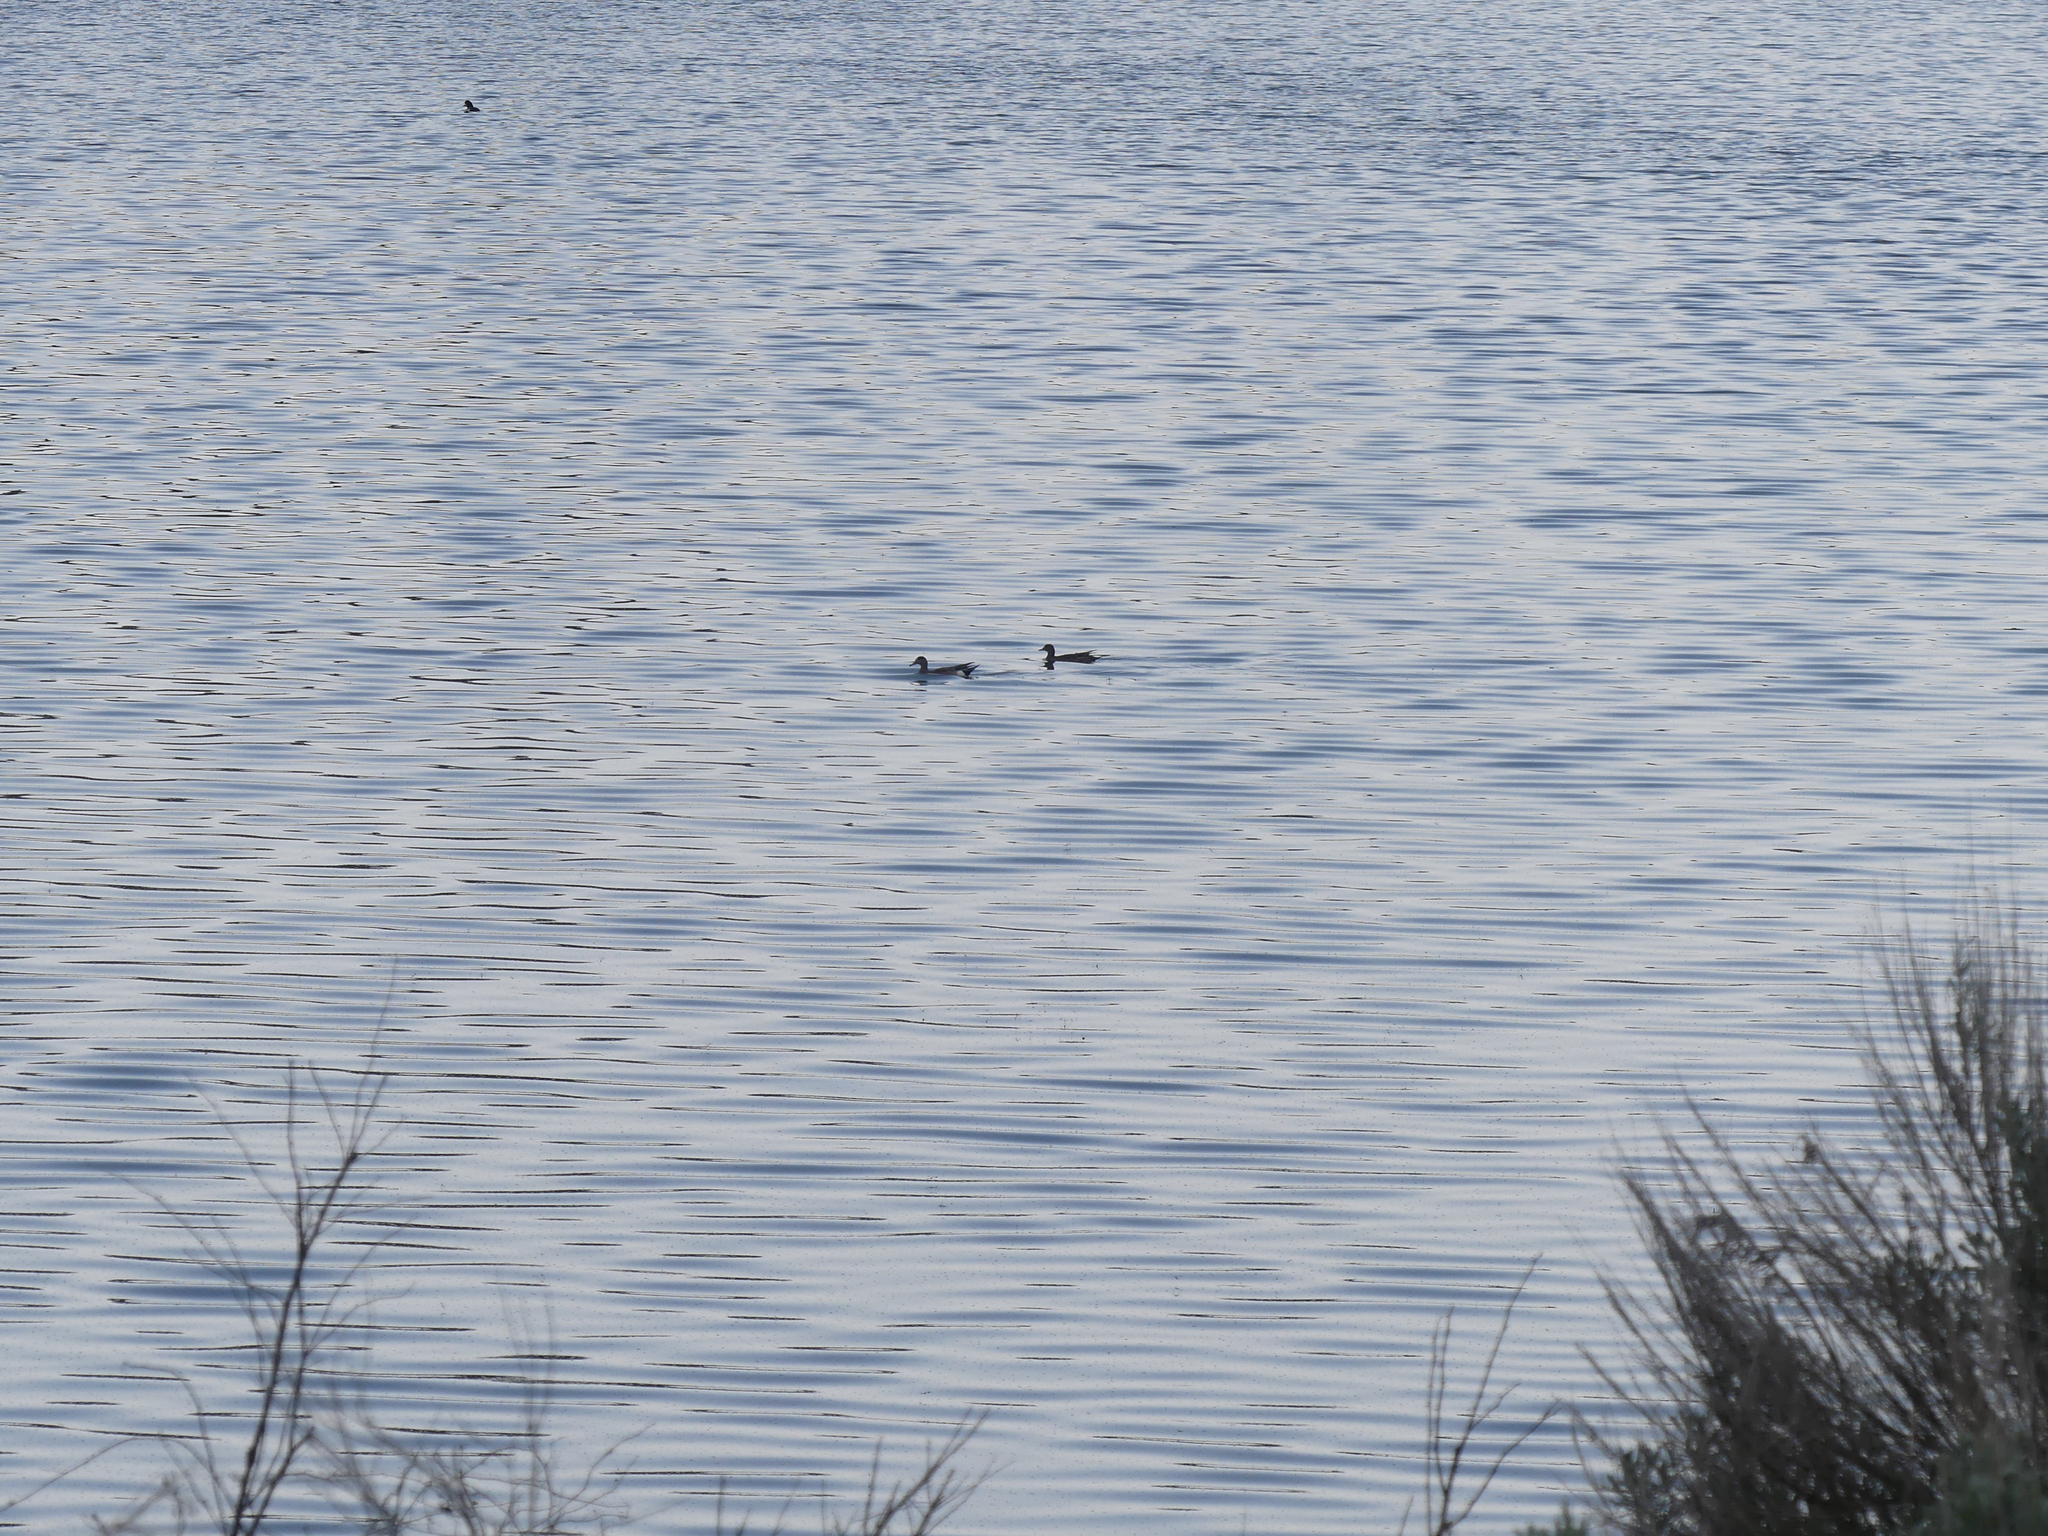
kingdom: Animalia
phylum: Chordata
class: Aves
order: Anseriformes
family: Anatidae
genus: Mareca
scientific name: Mareca americana
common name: American wigeon
